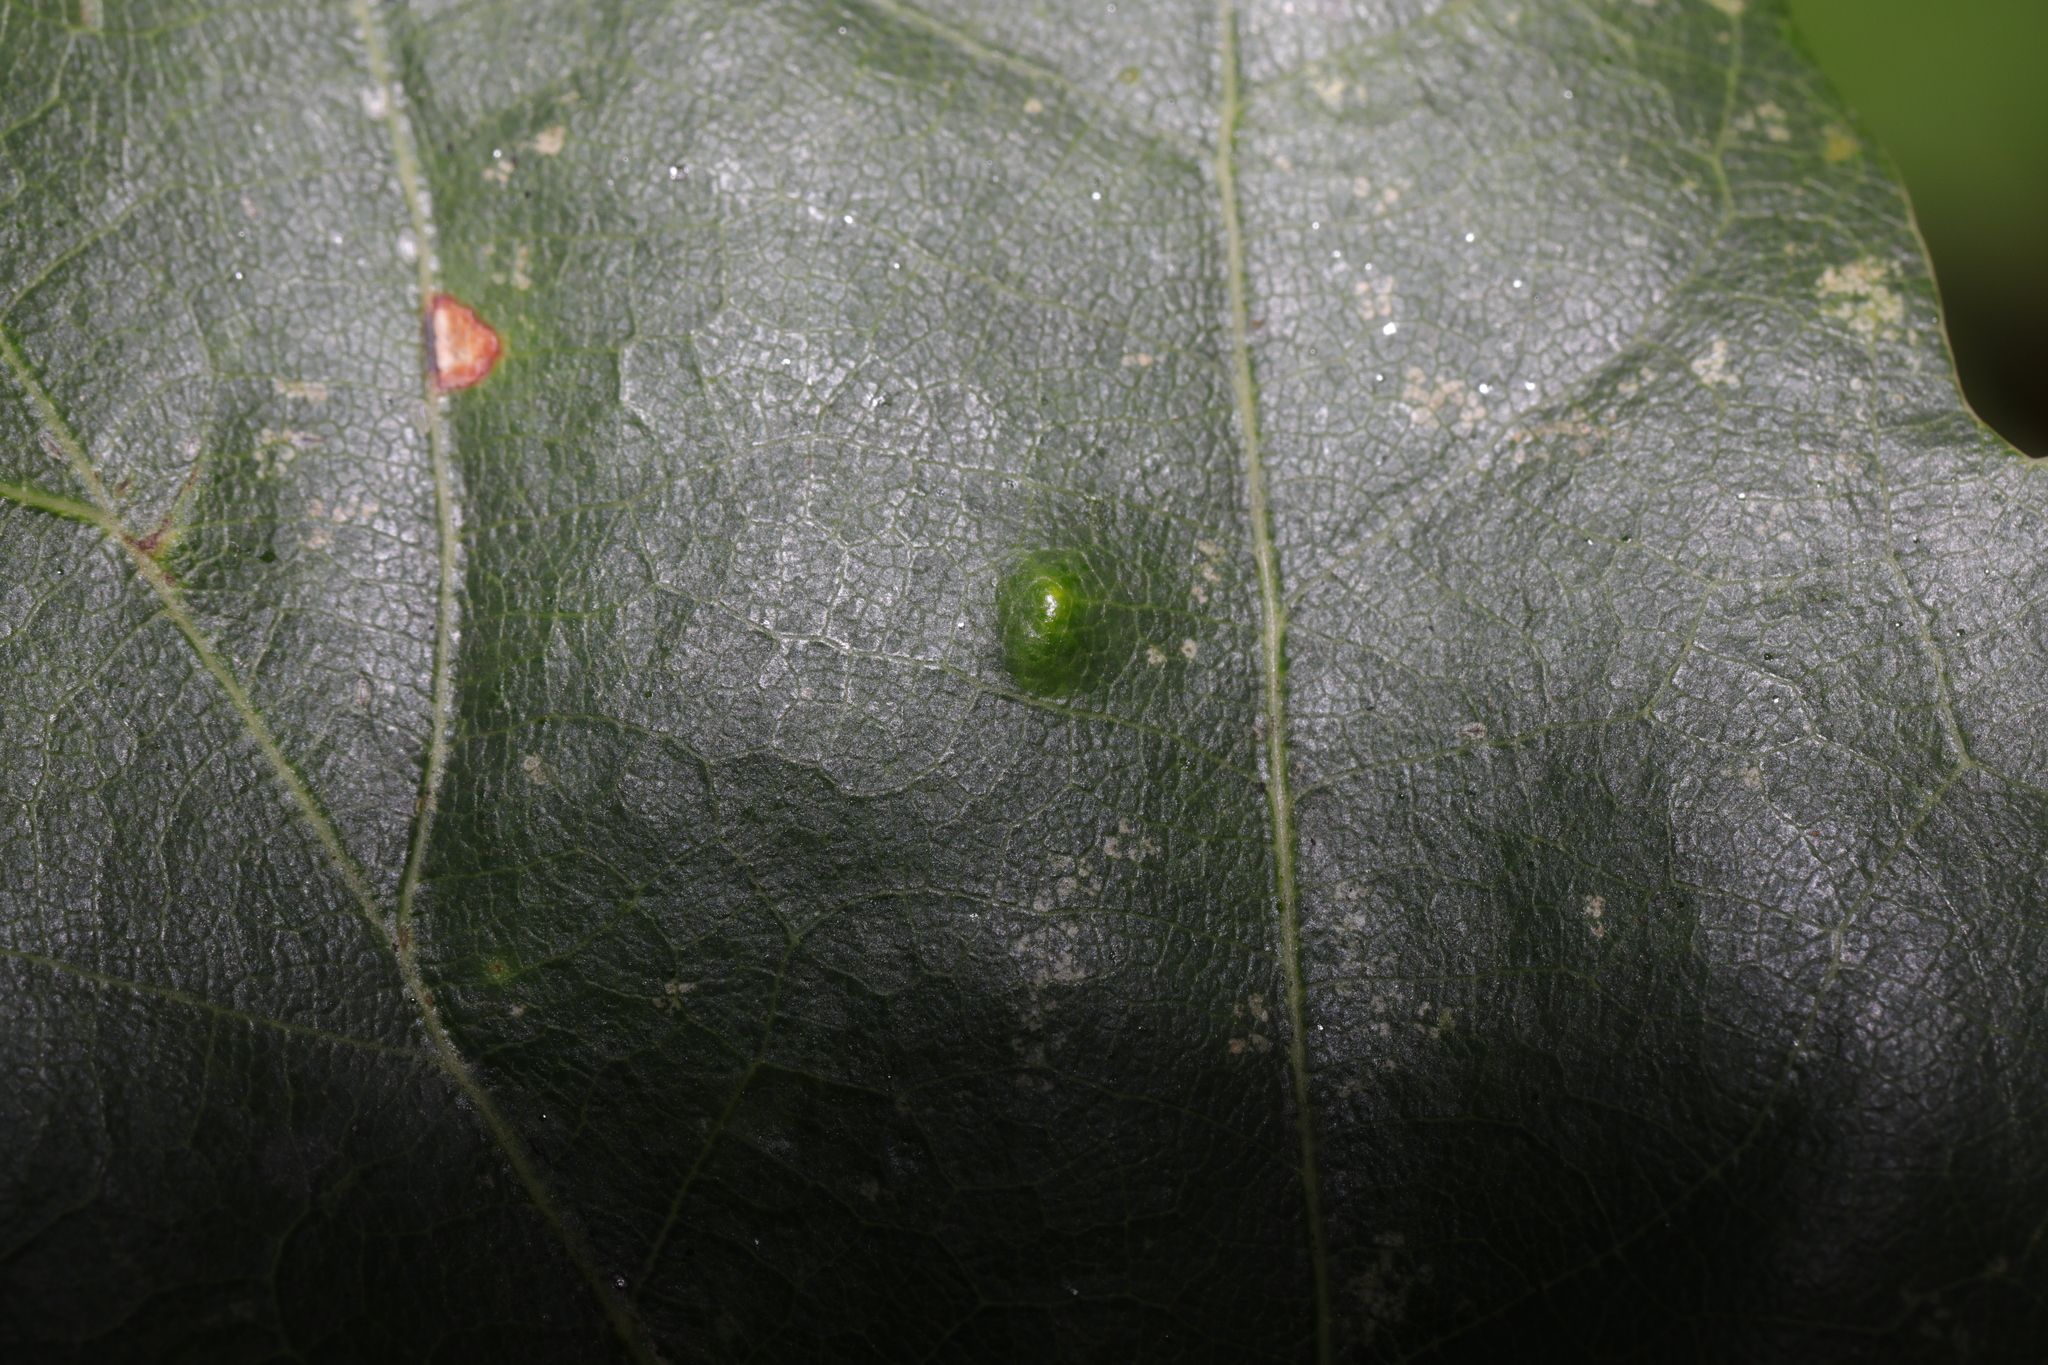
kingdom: Animalia
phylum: Arthropoda
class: Insecta
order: Hemiptera
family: Triozidae
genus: Trioza
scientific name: Trioza remota
